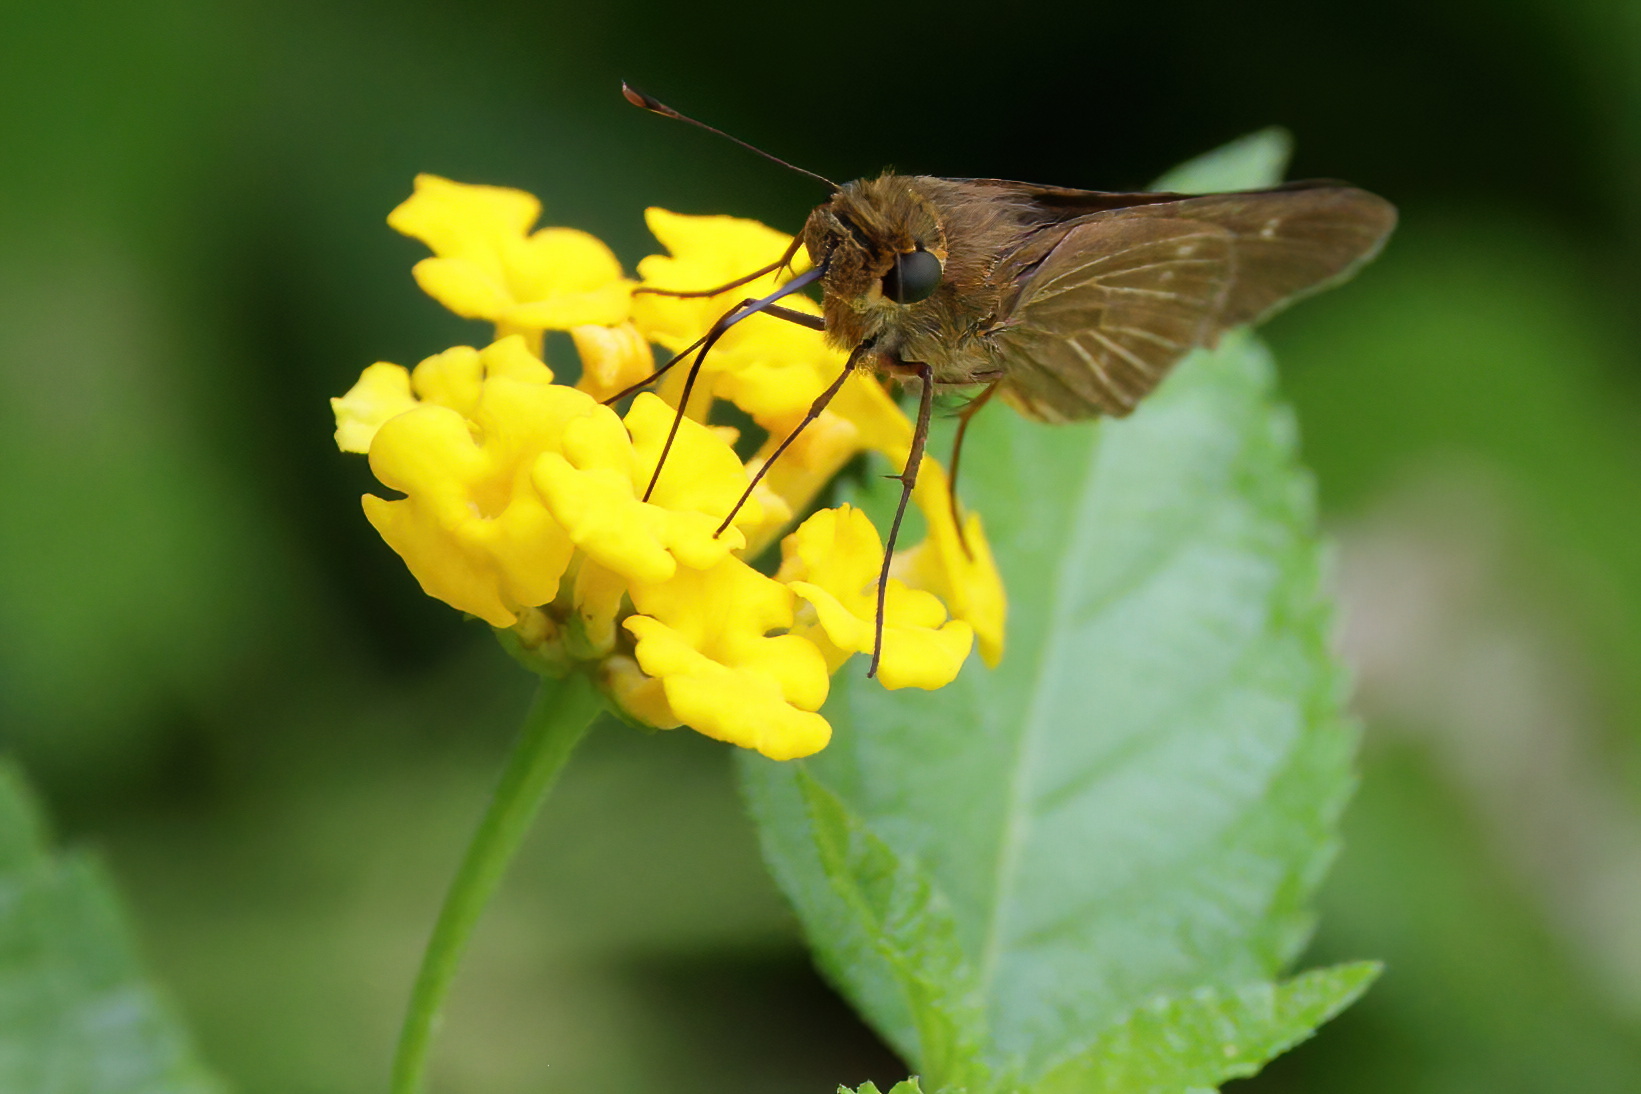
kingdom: Animalia
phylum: Arthropoda
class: Insecta
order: Lepidoptera
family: Hesperiidae
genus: Panoquina
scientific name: Panoquina ocola
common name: Ocola skipper
